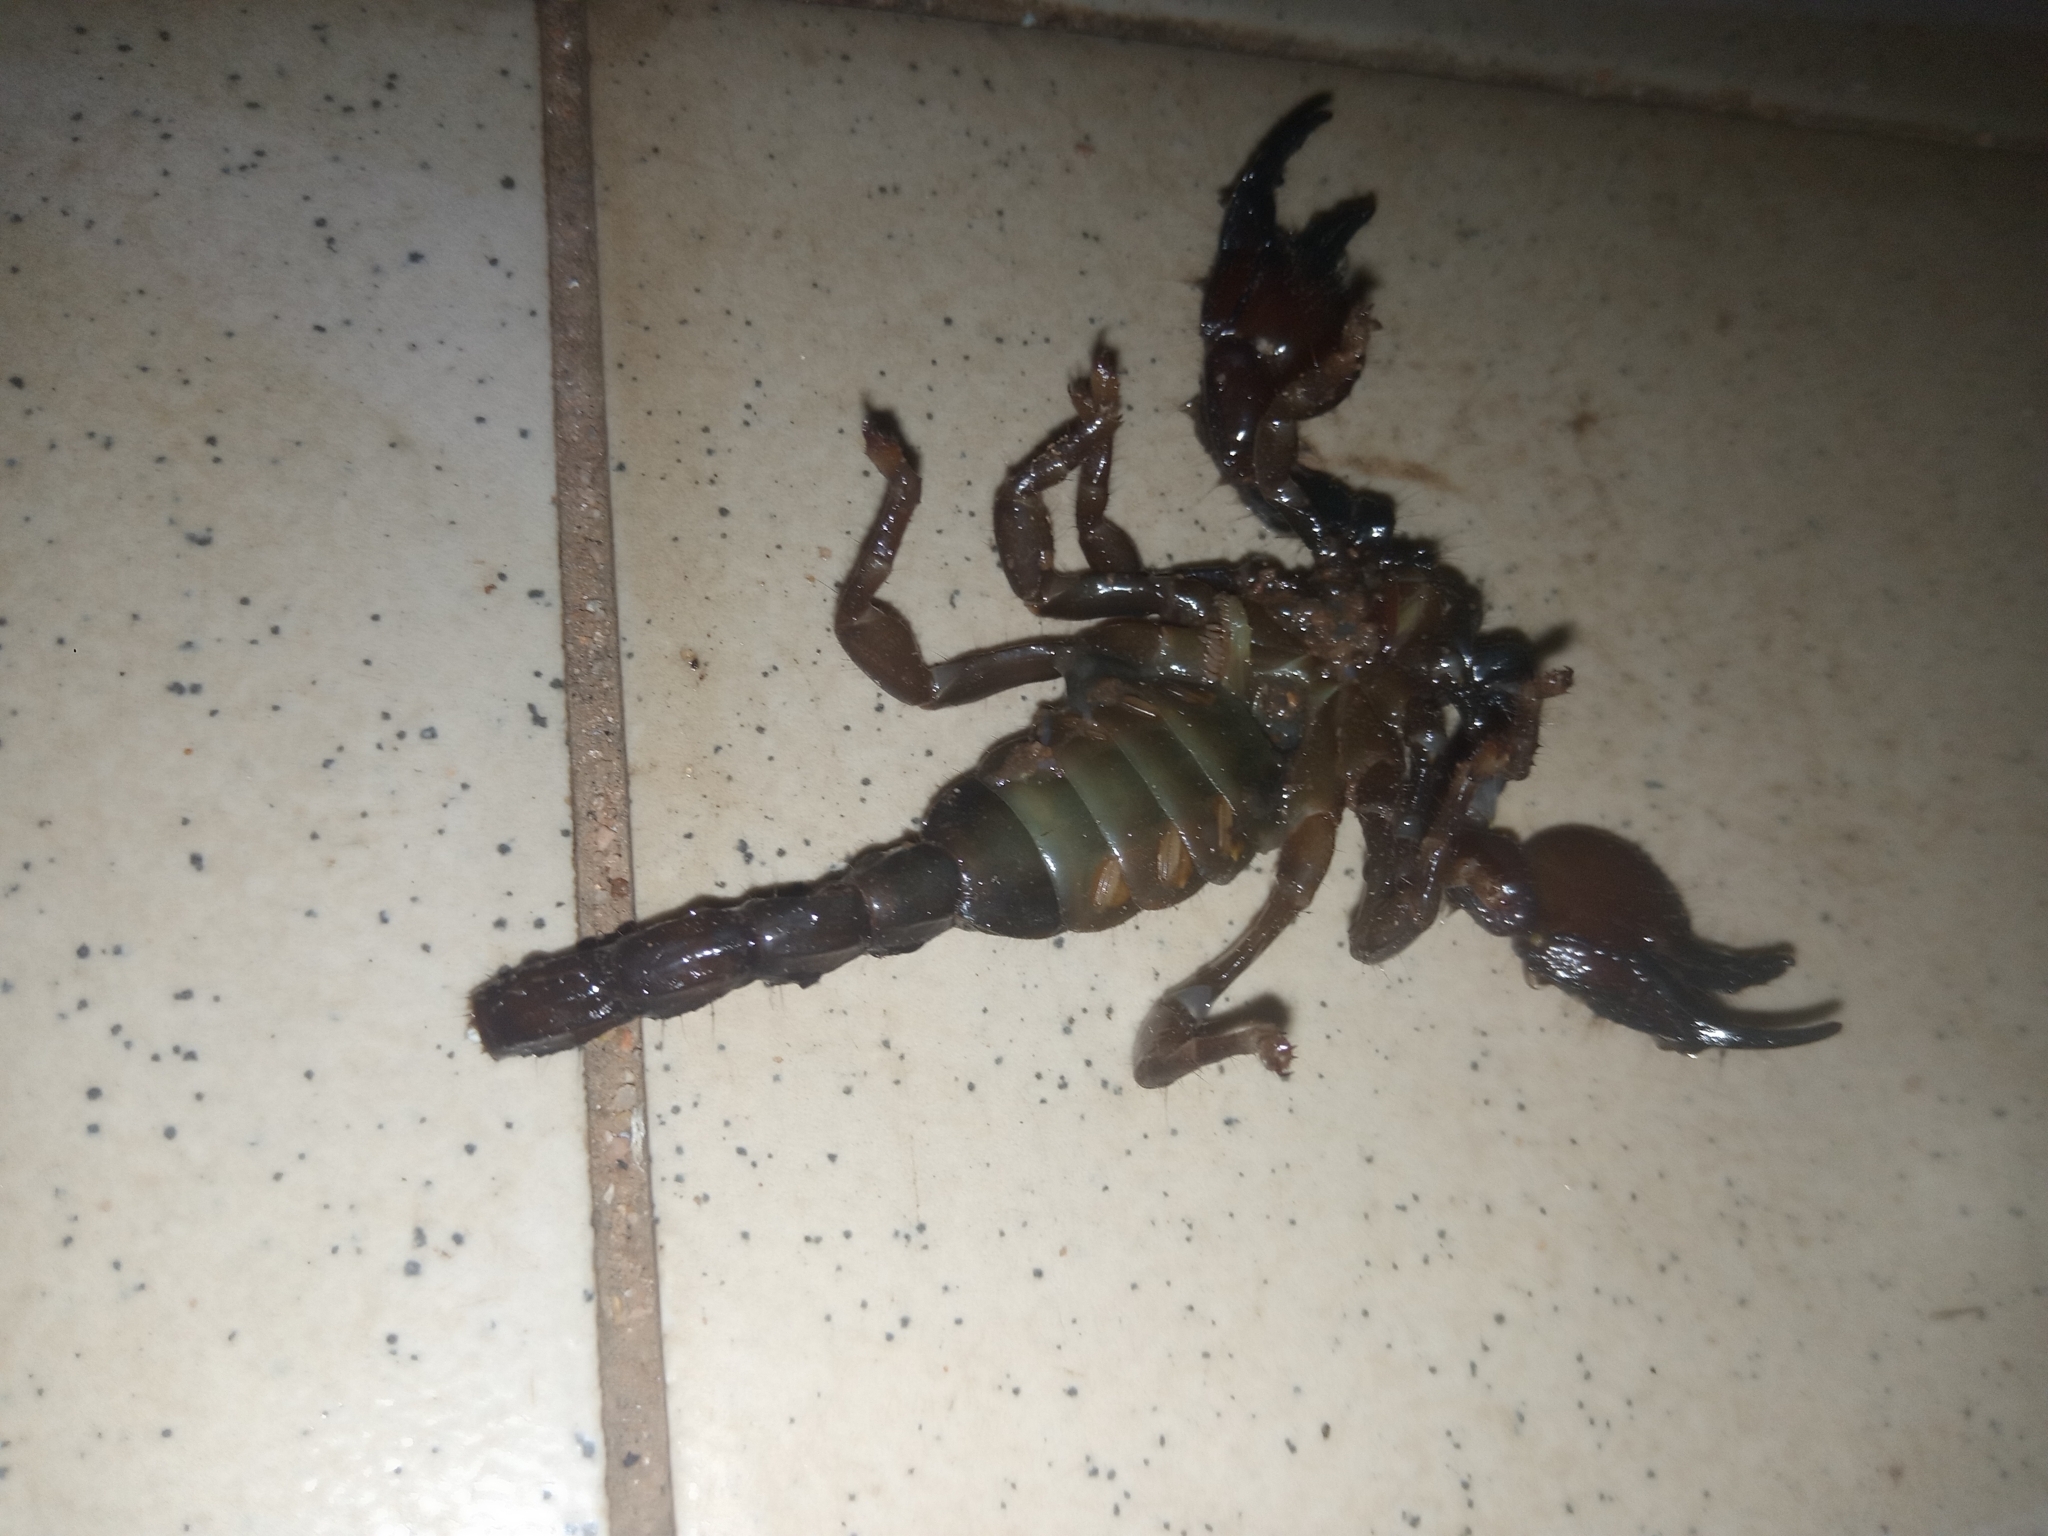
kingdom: Animalia
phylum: Arthropoda
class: Arachnida
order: Scorpiones
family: Scorpionidae
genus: Pandinus
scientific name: Pandinus imperator
